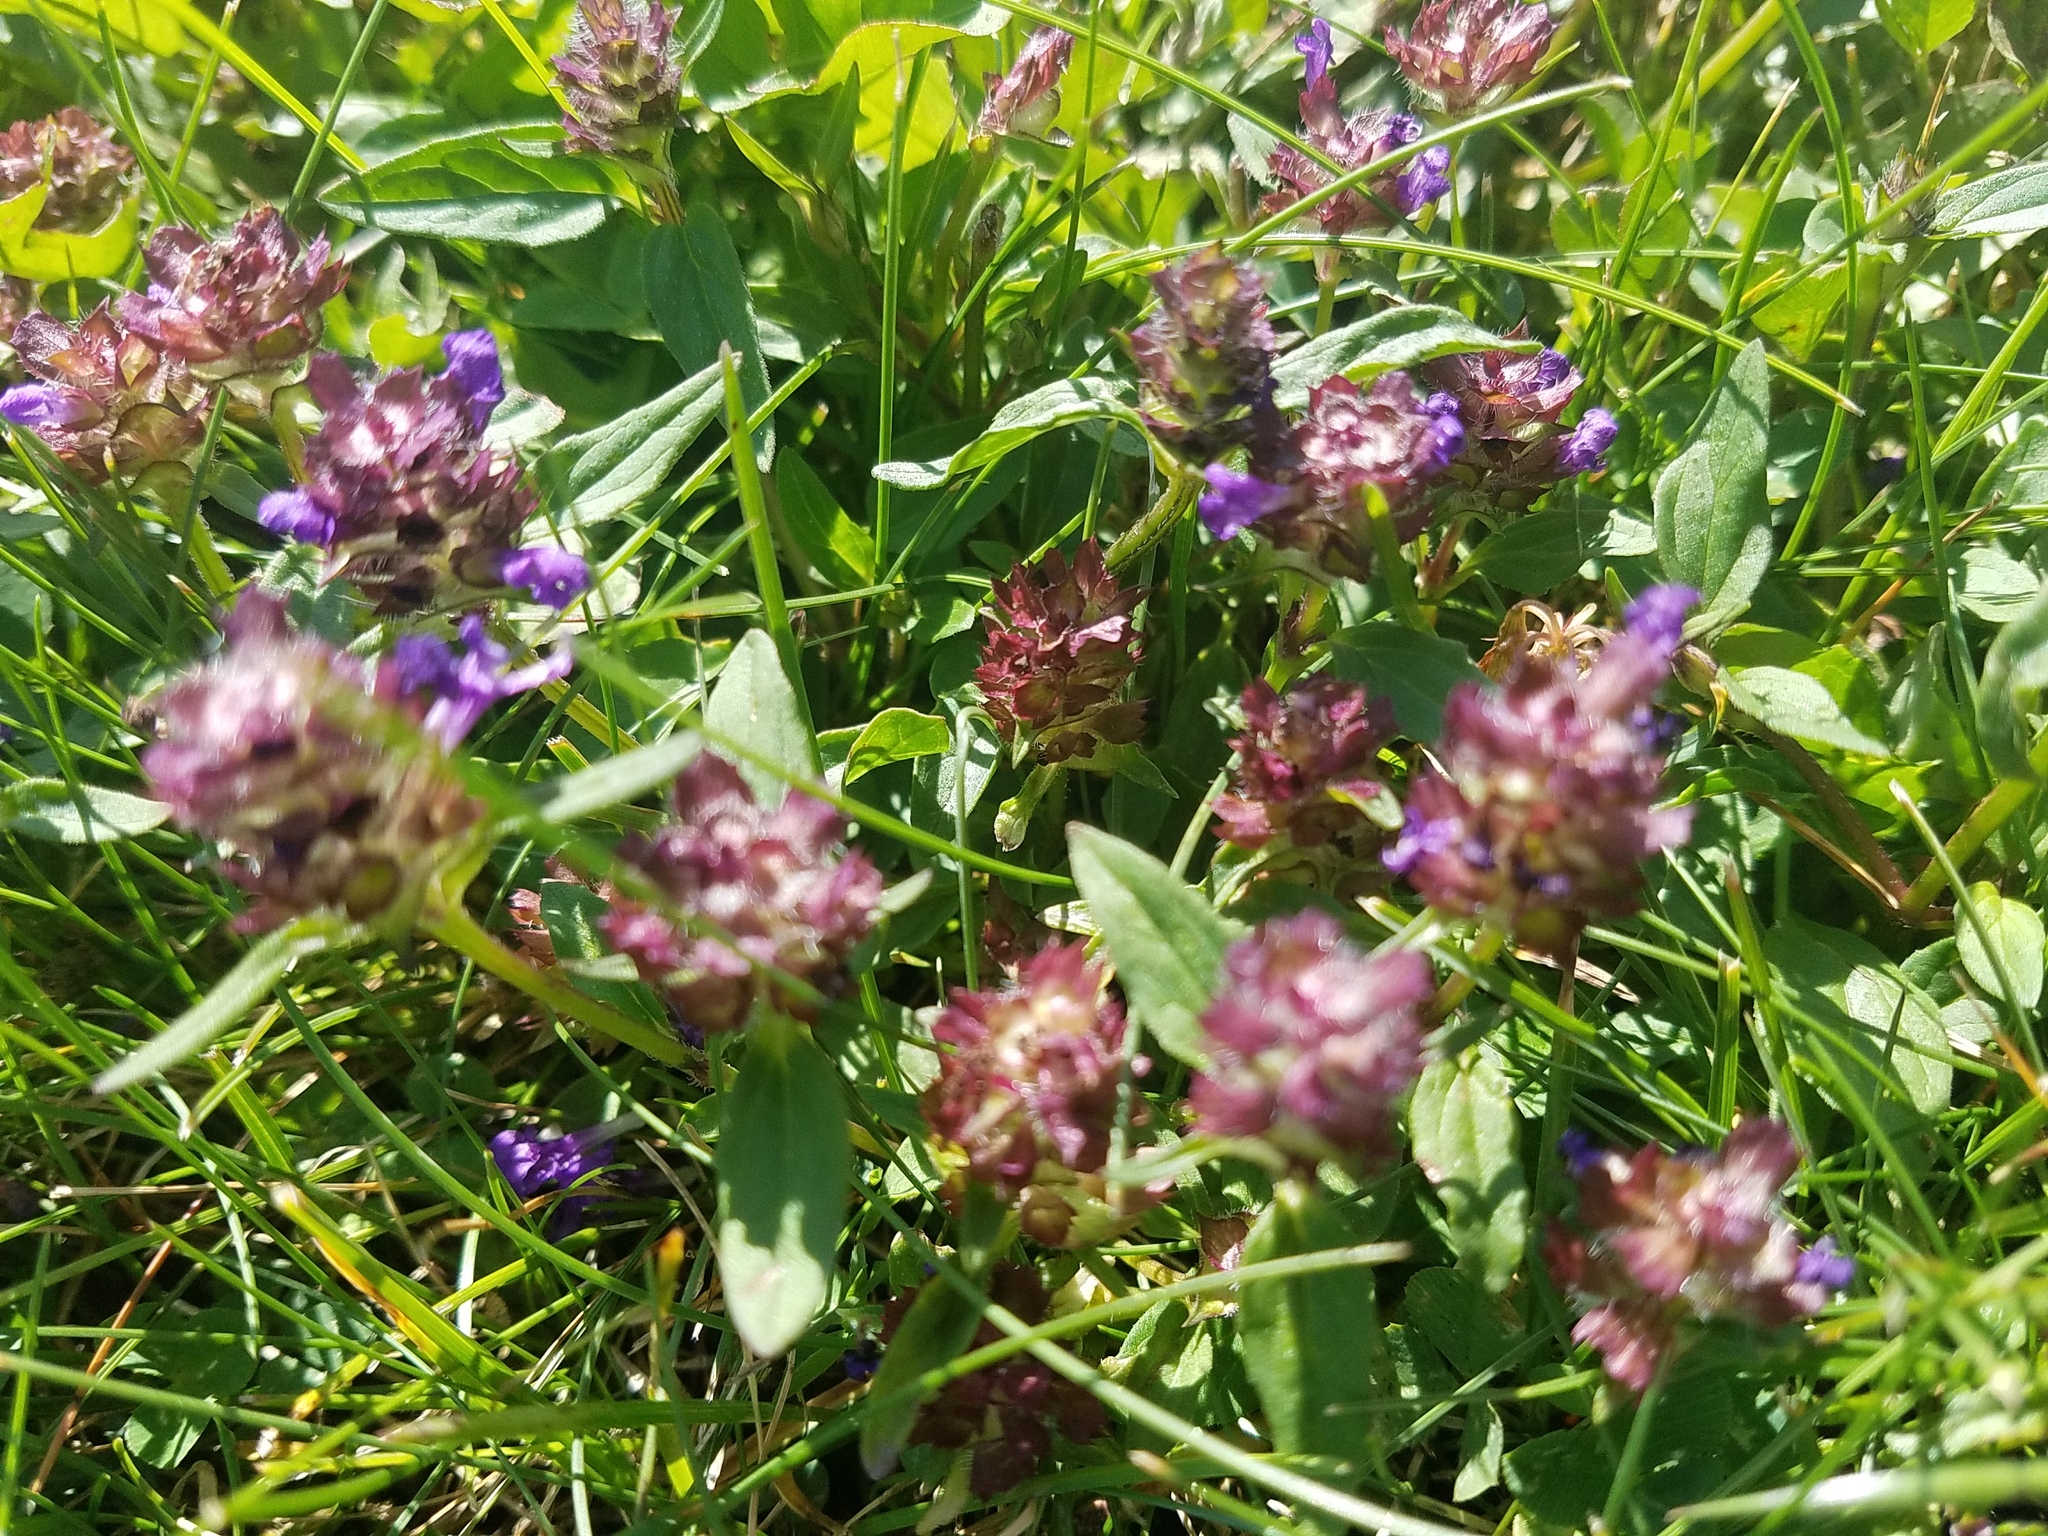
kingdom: Plantae
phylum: Tracheophyta
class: Magnoliopsida
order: Lamiales
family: Lamiaceae
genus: Prunella
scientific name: Prunella vulgaris
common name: Heal-all
